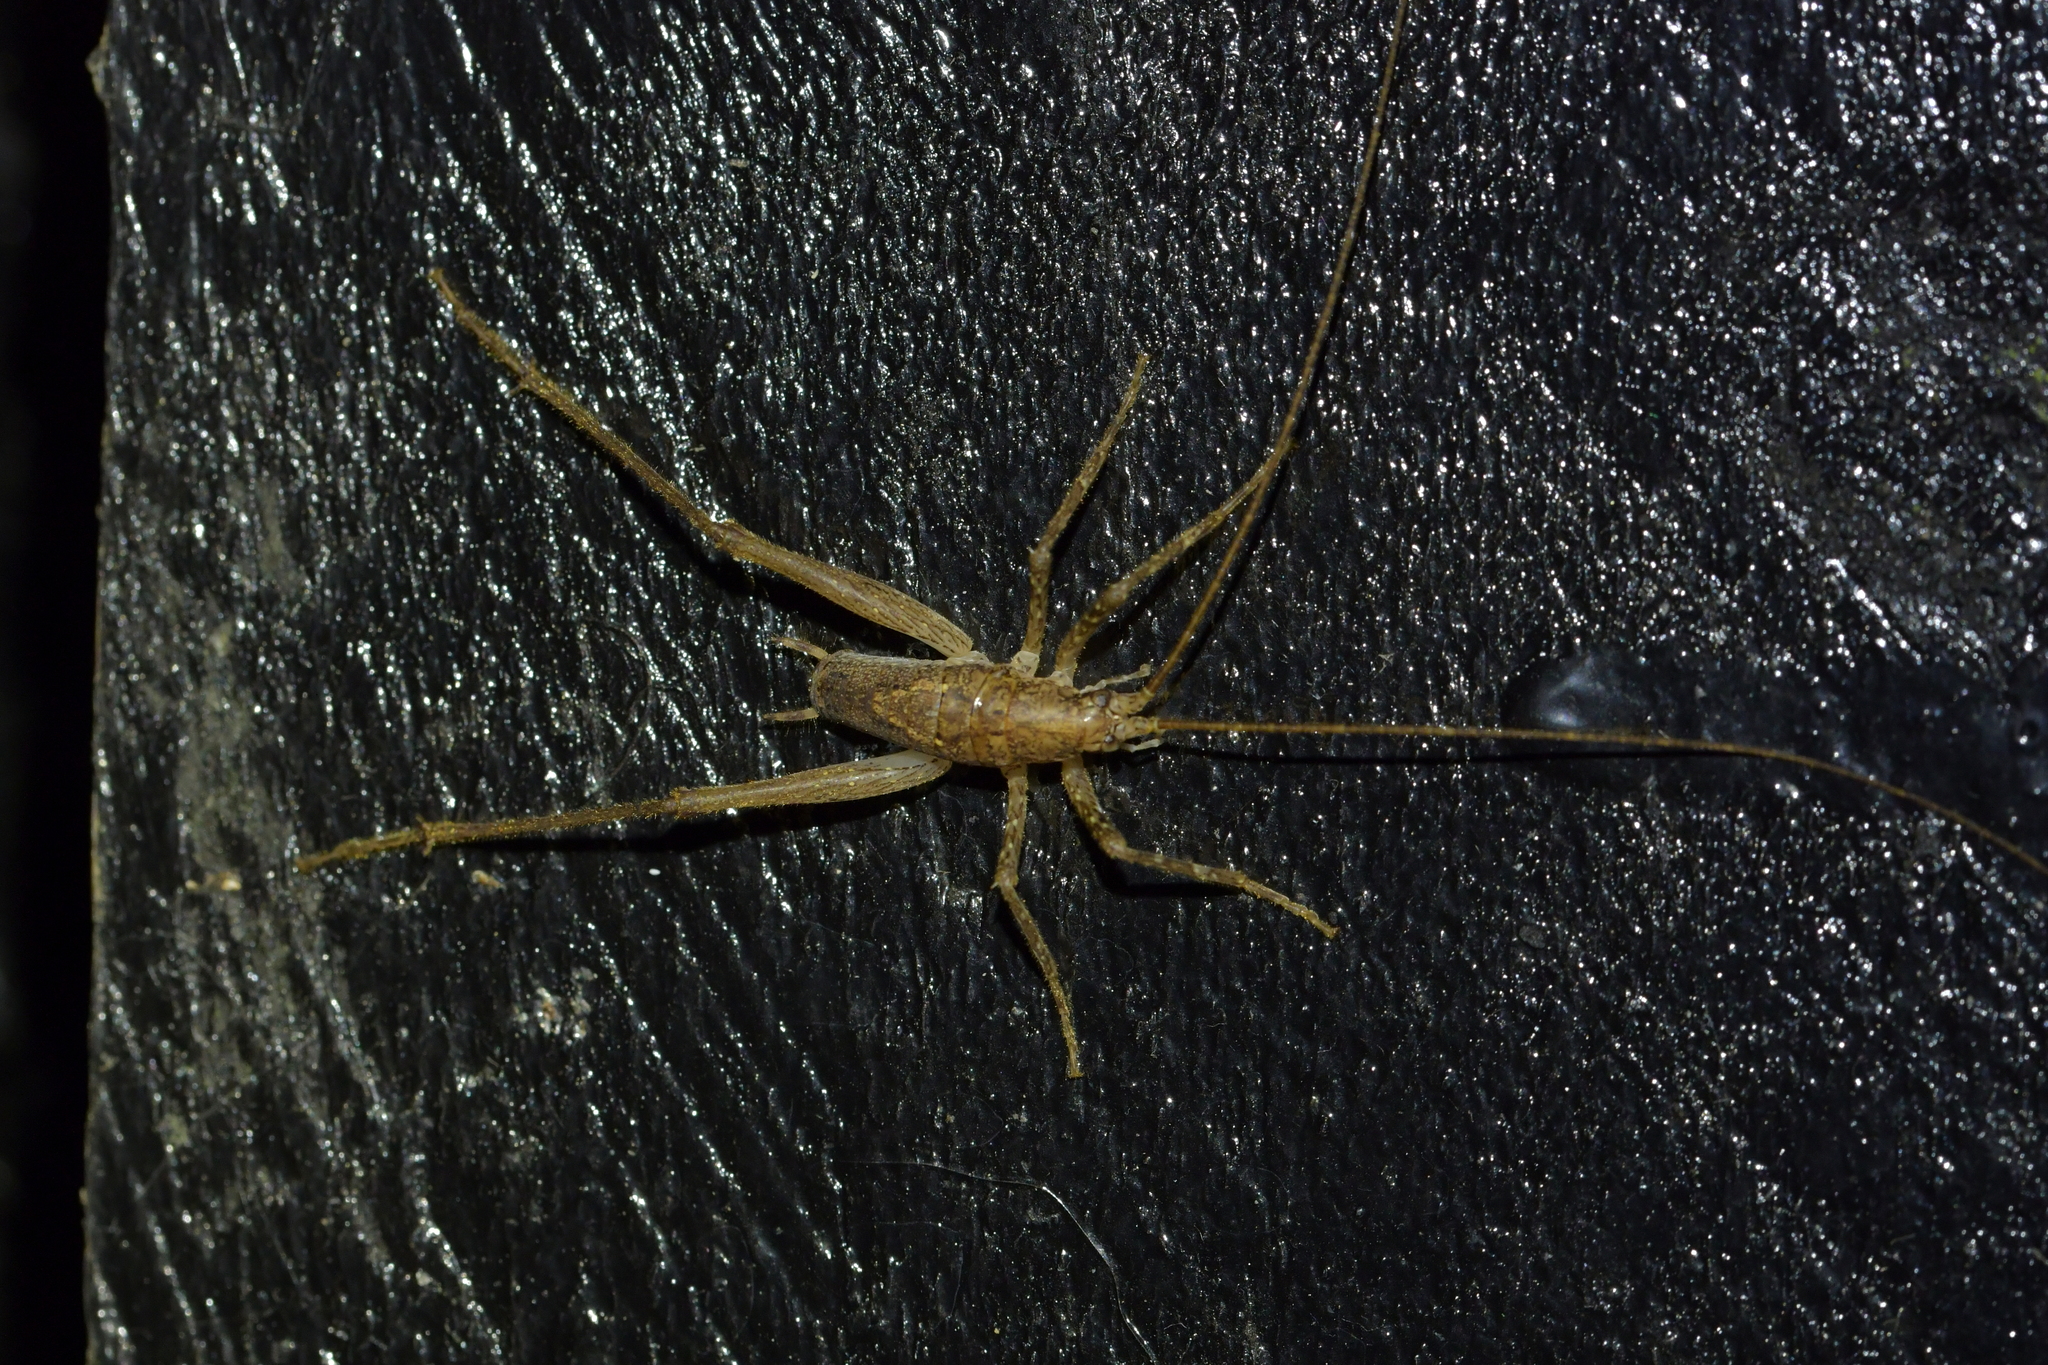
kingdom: Animalia
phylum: Arthropoda
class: Insecta
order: Orthoptera
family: Rhaphidophoridae
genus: Isoplectron
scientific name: Isoplectron armatum
